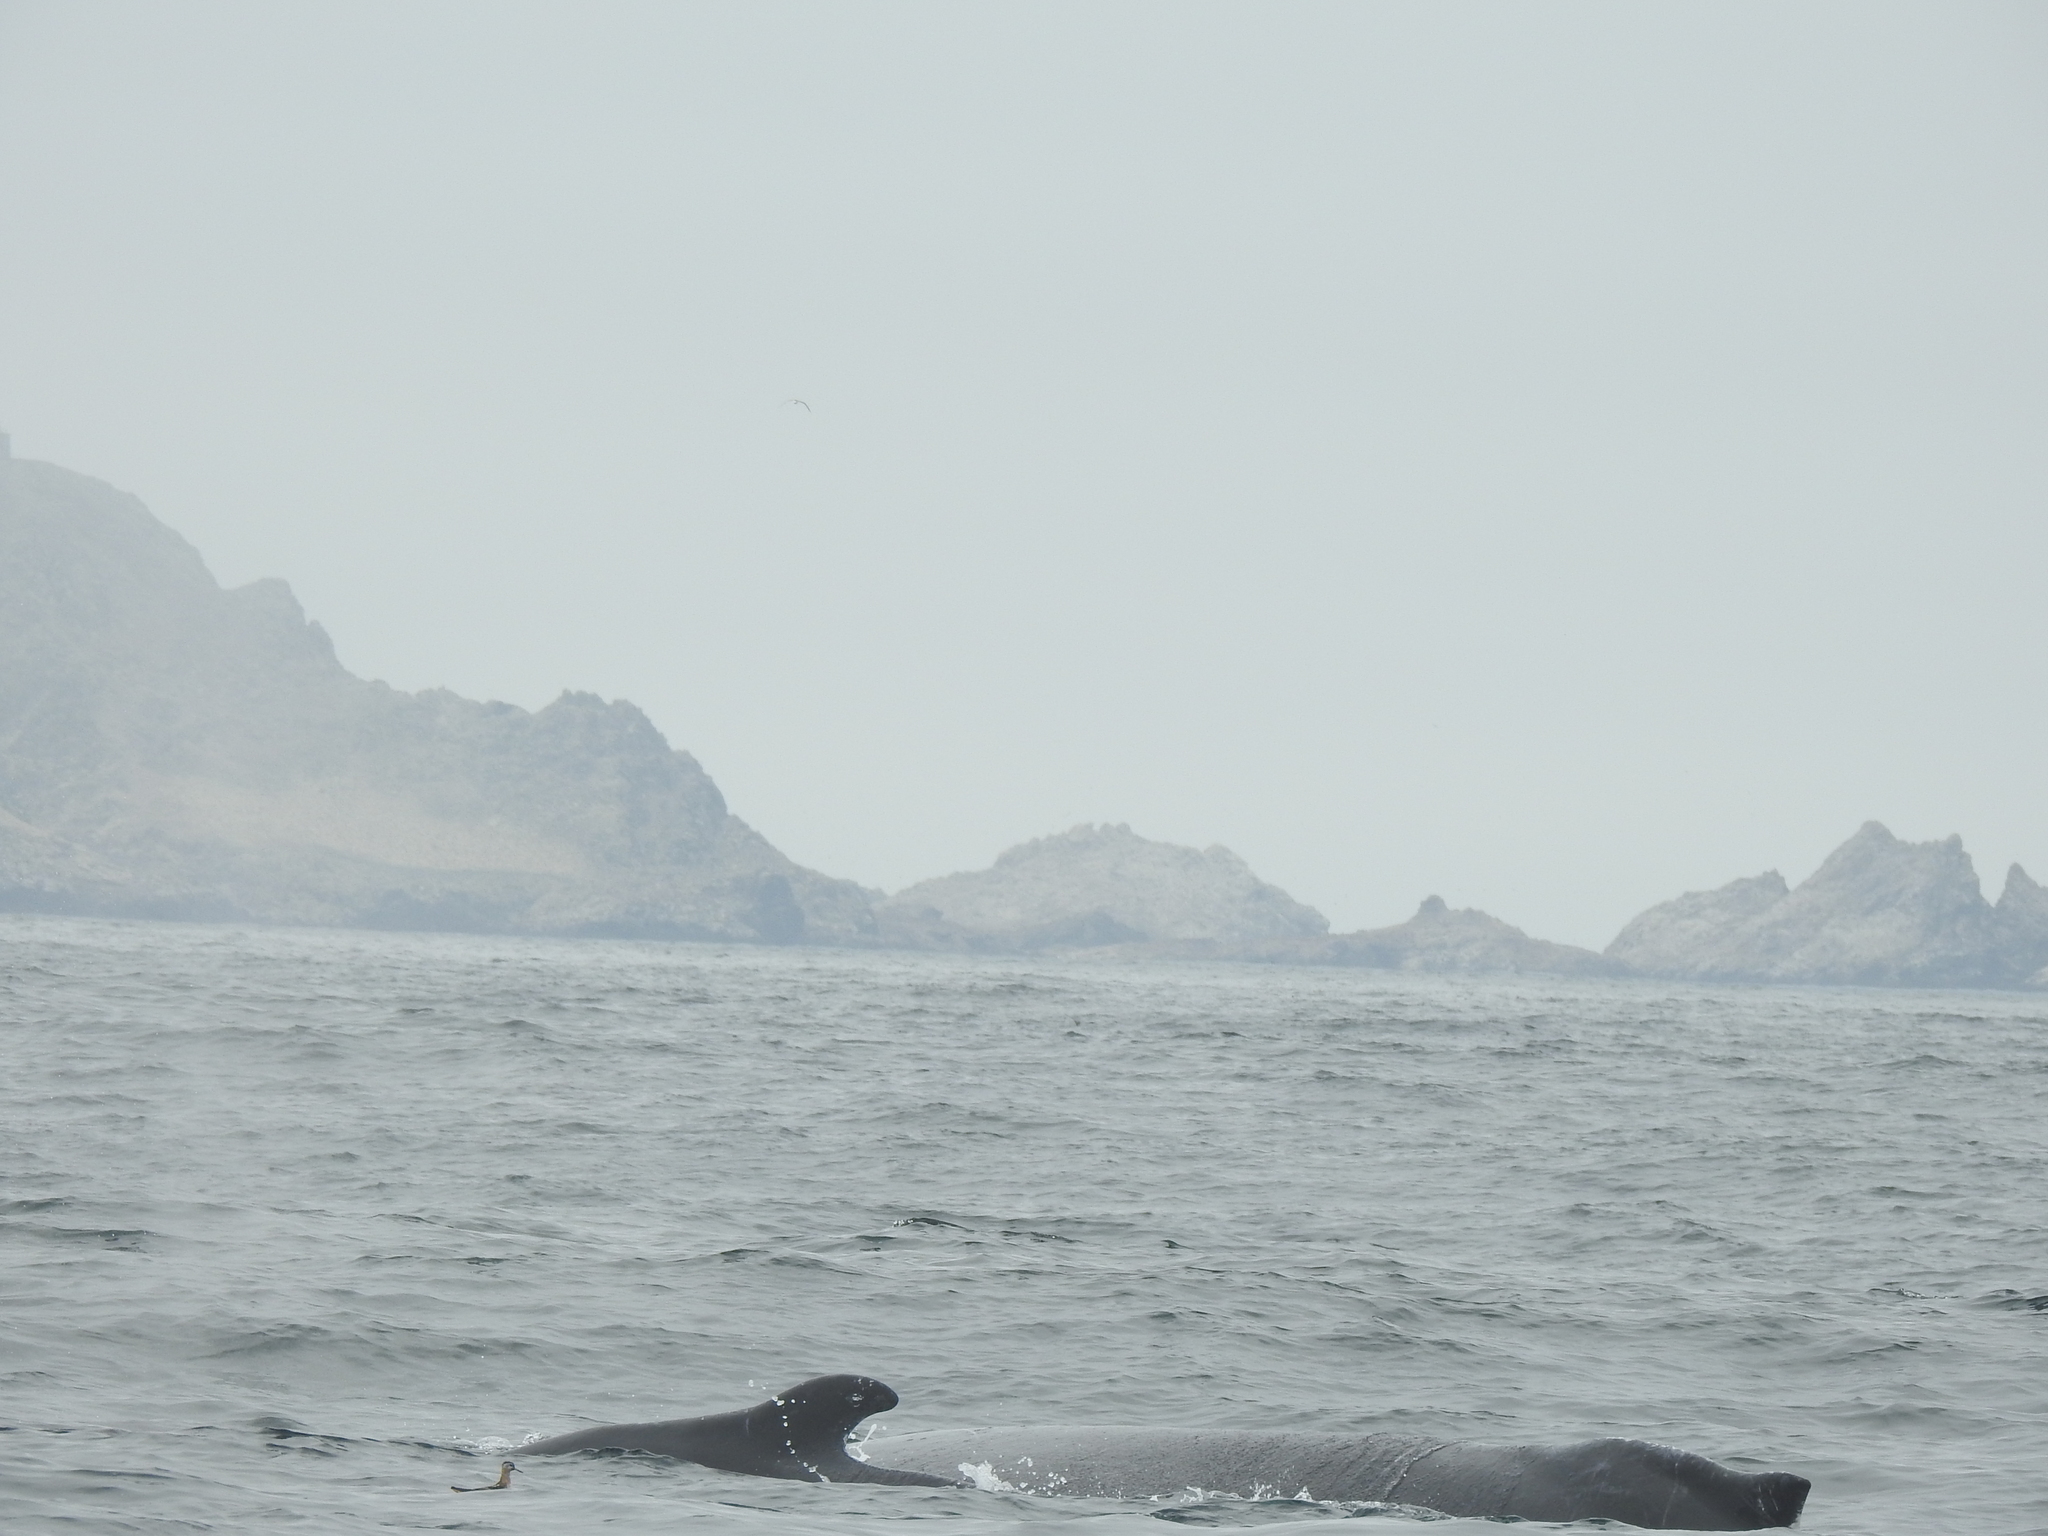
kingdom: Animalia
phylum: Chordata
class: Mammalia
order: Cetacea
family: Balaenopteridae
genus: Megaptera
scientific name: Megaptera novaeangliae
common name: Humpback whale
